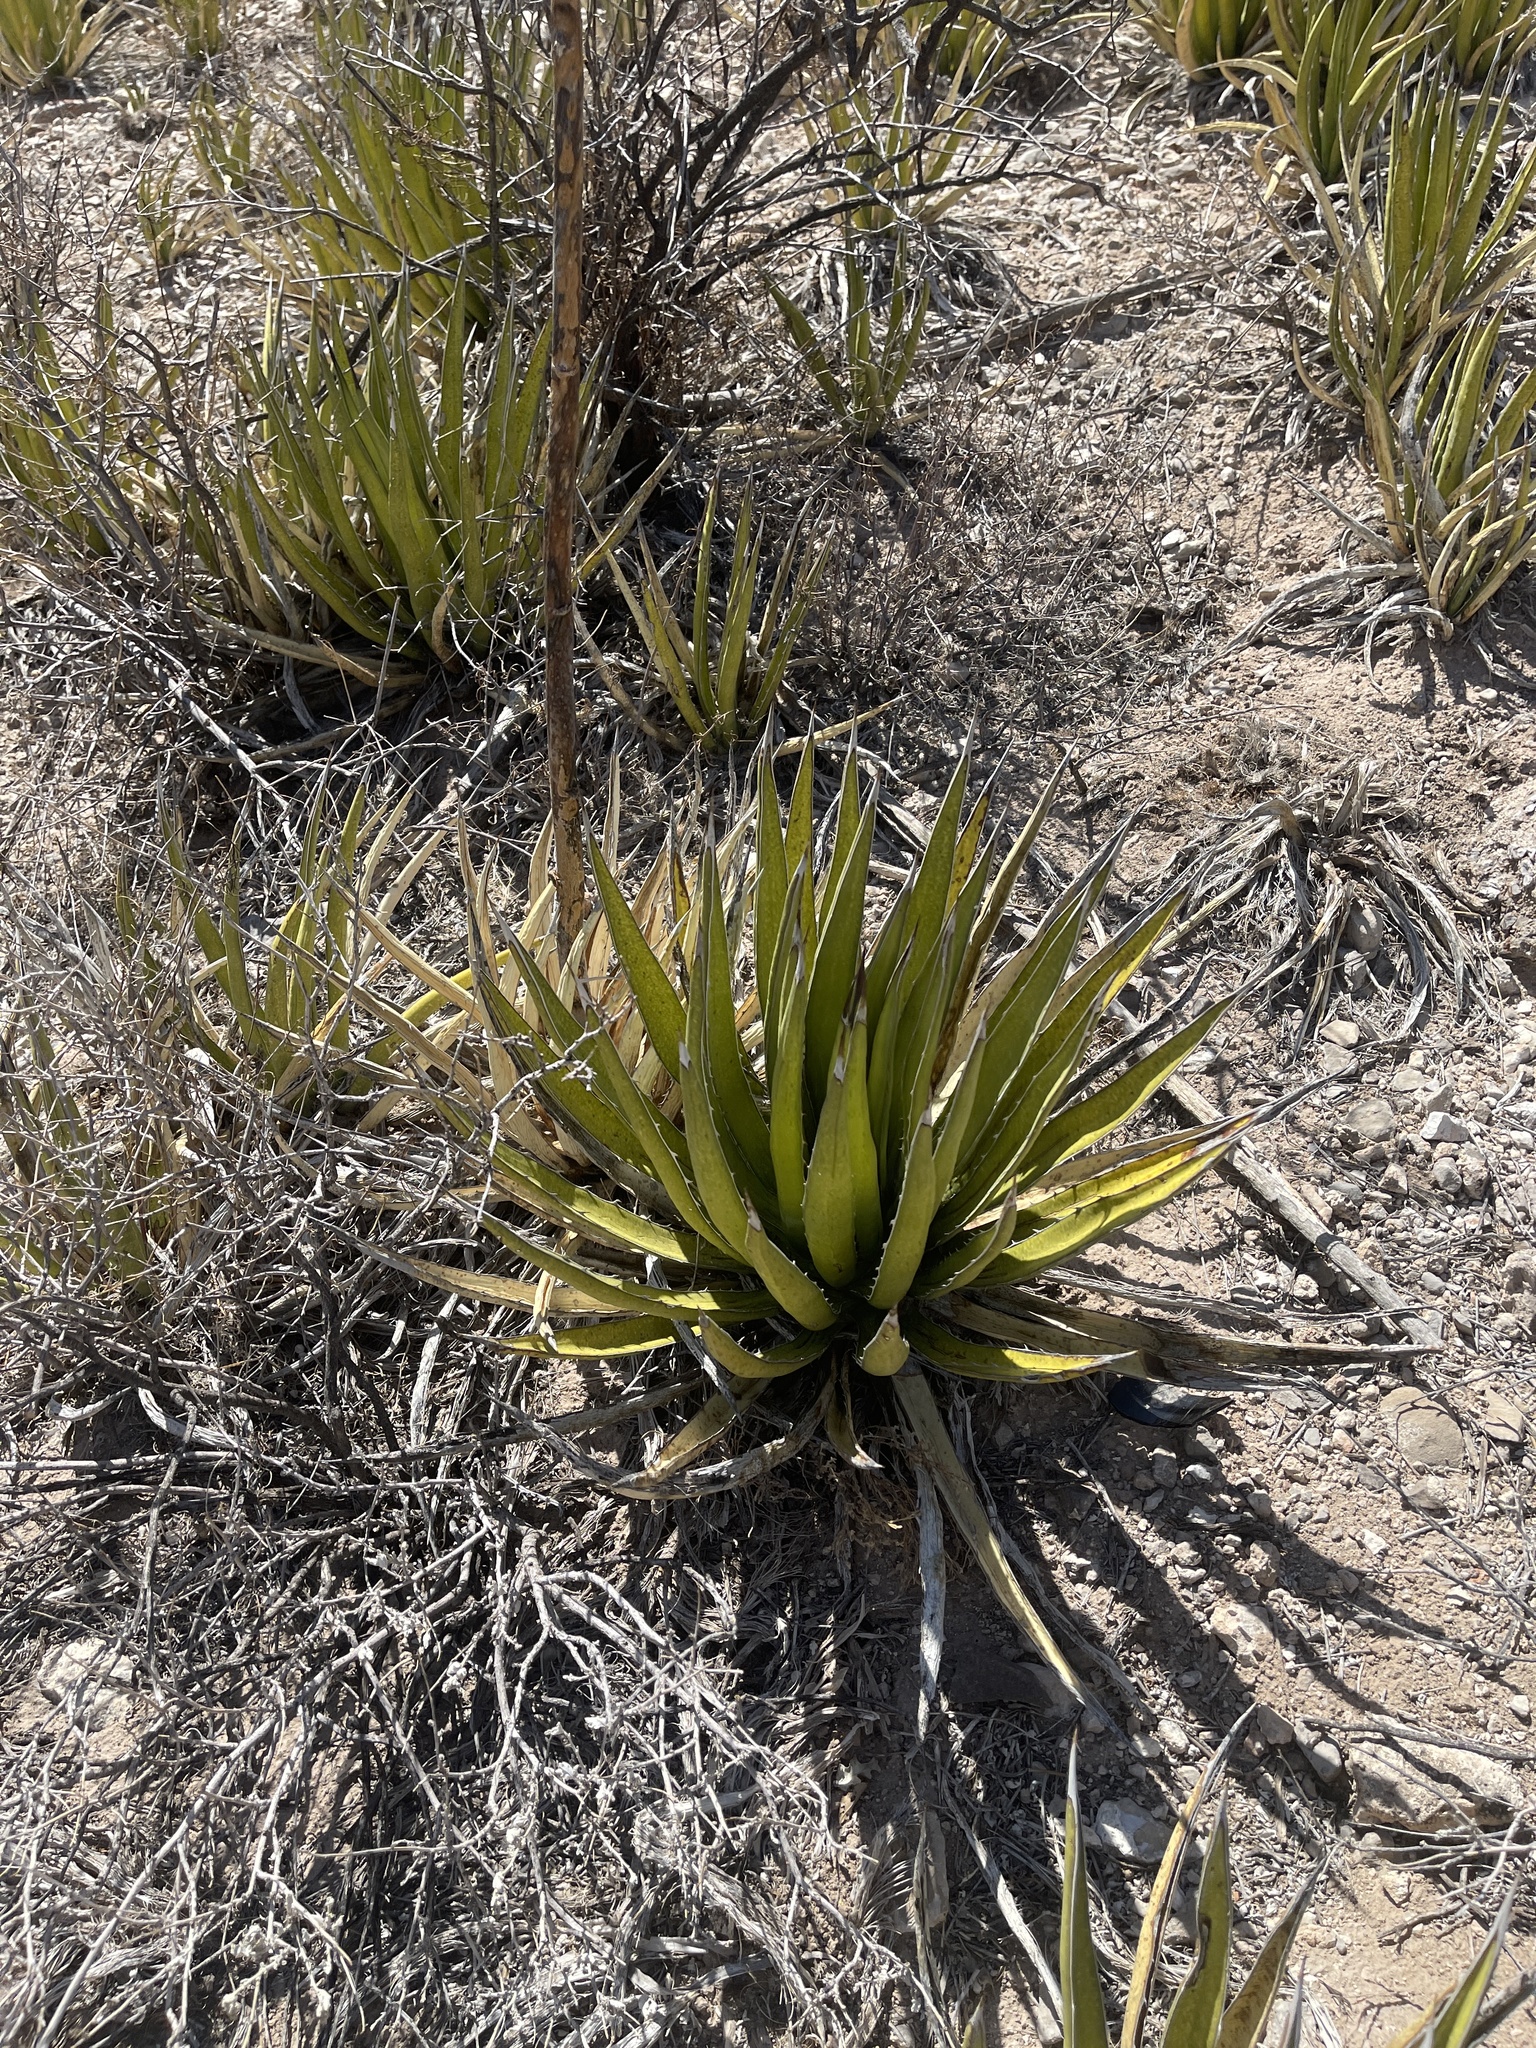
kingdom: Plantae
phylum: Tracheophyta
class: Liliopsida
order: Asparagales
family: Asparagaceae
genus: Agave
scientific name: Agave lechuguilla
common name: Lecheguilla agave
